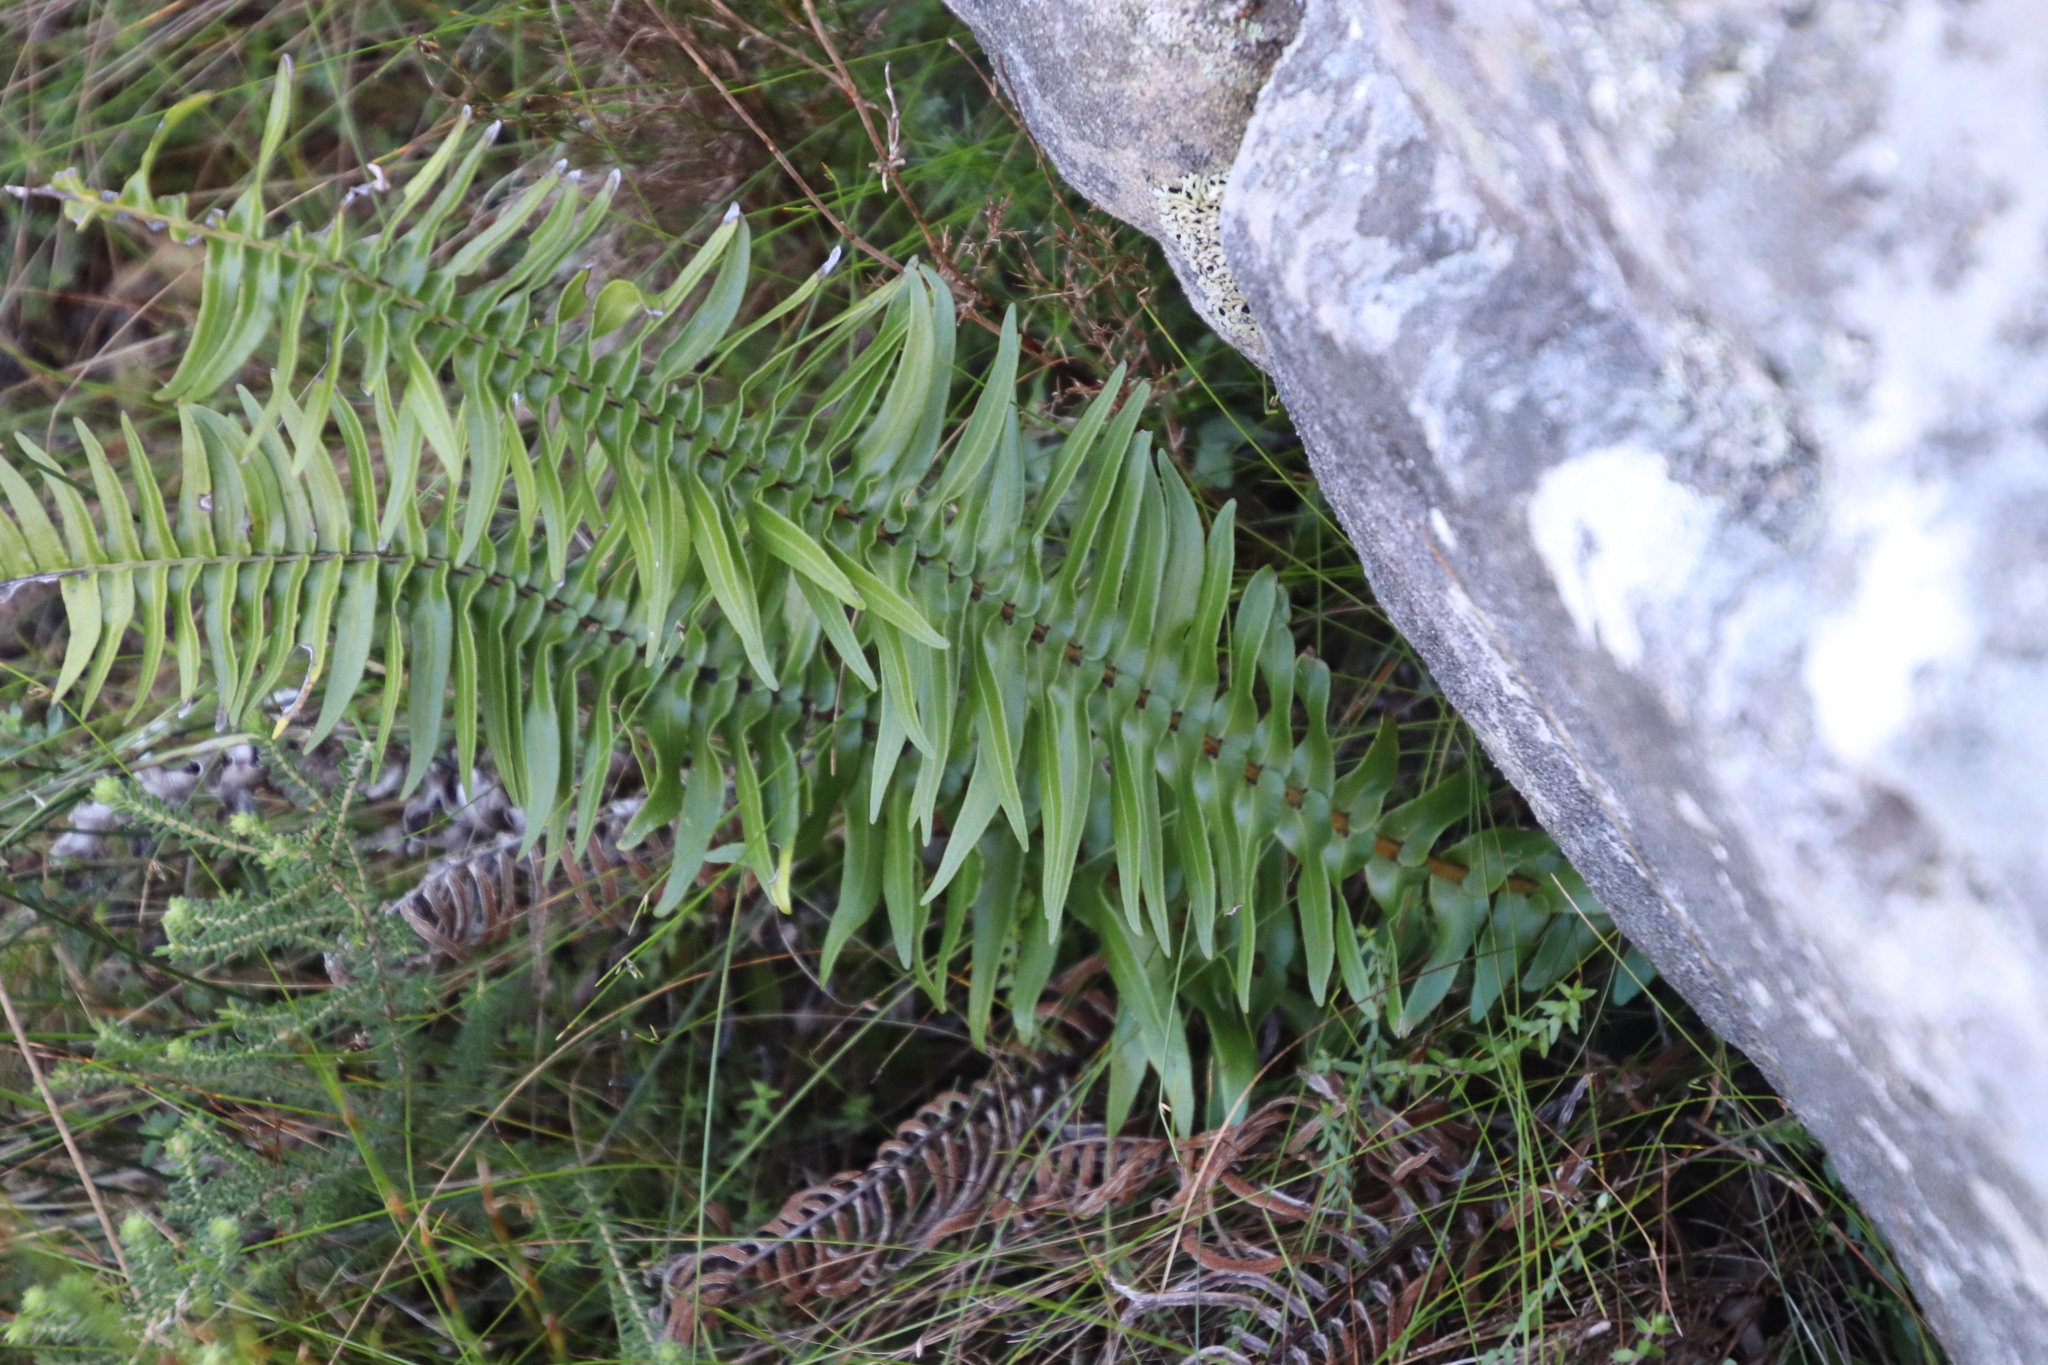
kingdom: Plantae
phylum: Tracheophyta
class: Polypodiopsida
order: Polypodiales
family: Blechnaceae
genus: Blechnum
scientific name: Blechnum punctulatum
